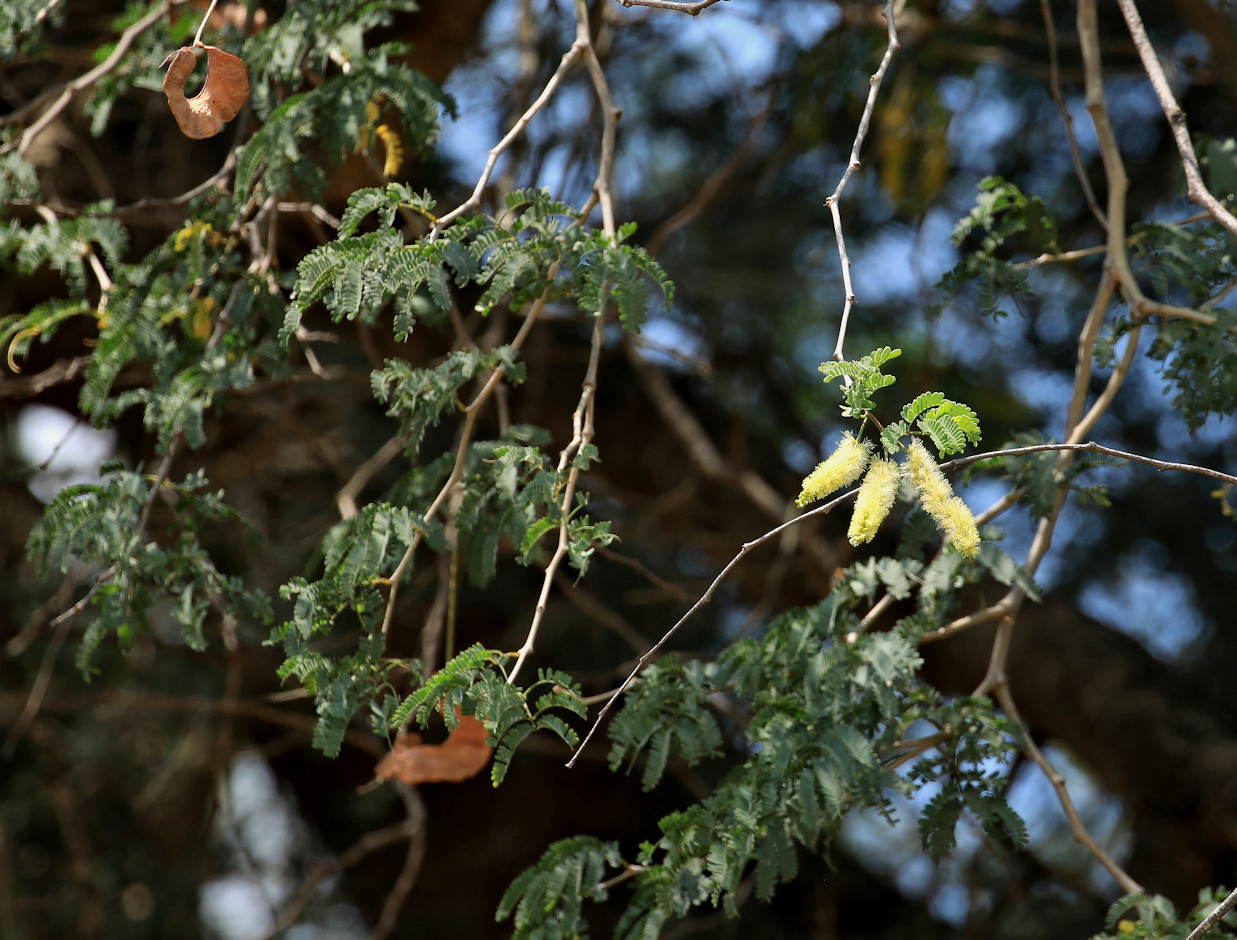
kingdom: Plantae
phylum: Tracheophyta
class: Magnoliopsida
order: Fabales
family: Fabaceae
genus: Faidherbia
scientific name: Faidherbia albida
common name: Anatree
